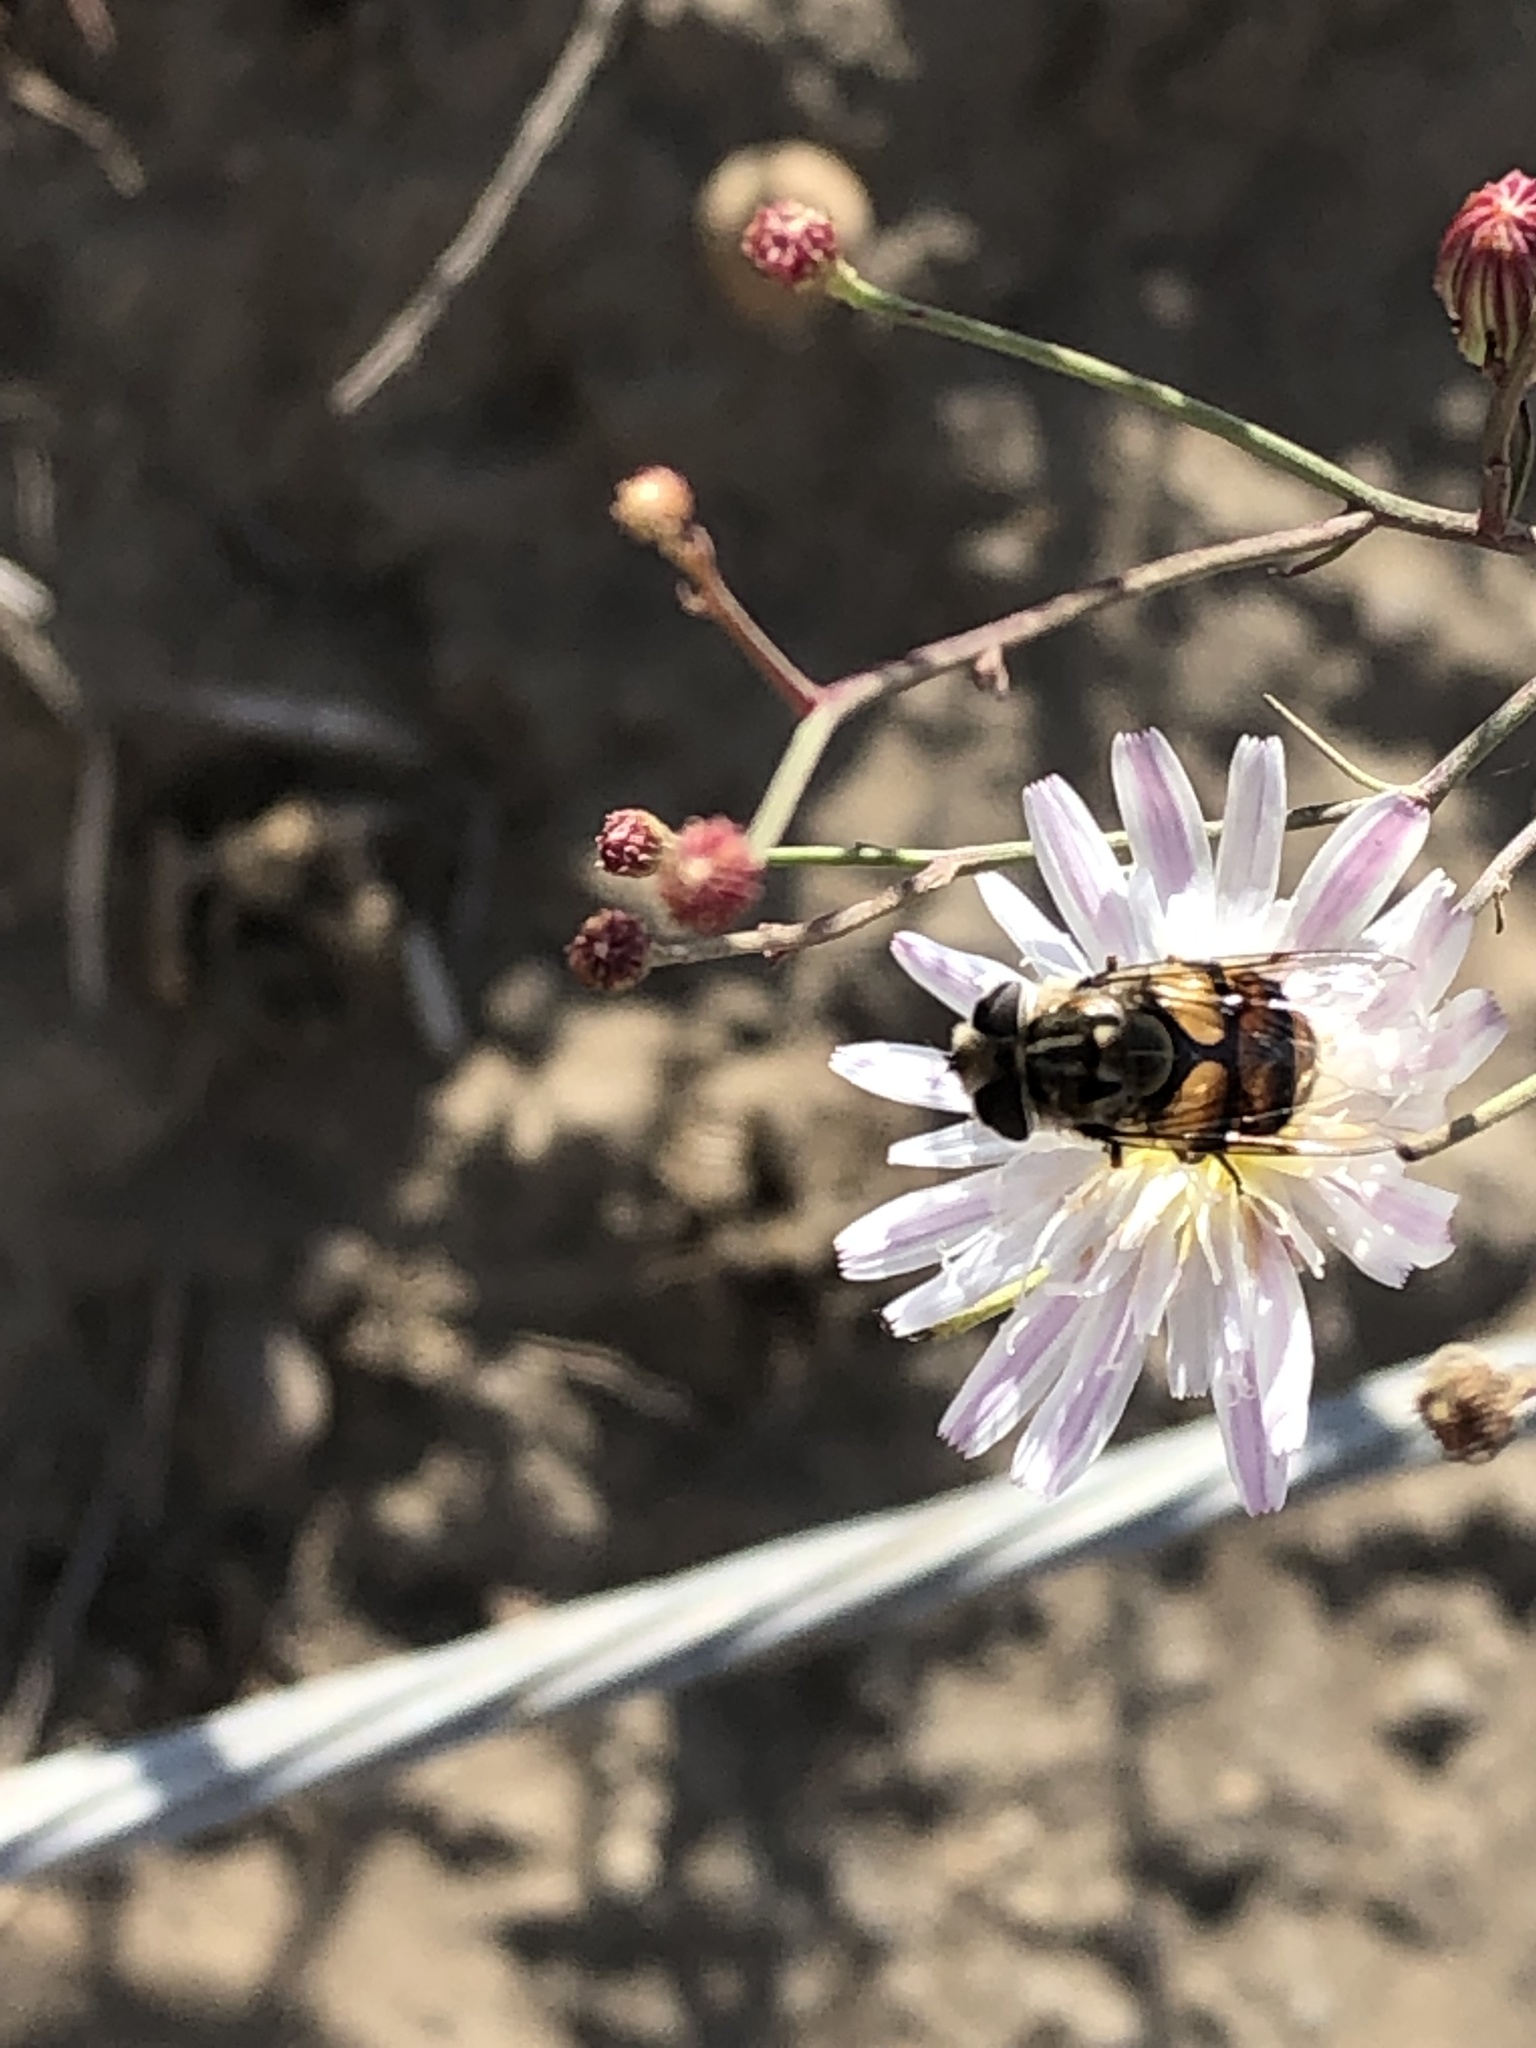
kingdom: Animalia
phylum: Arthropoda
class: Insecta
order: Diptera
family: Syrphidae
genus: Copestylum
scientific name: Copestylum avidum
